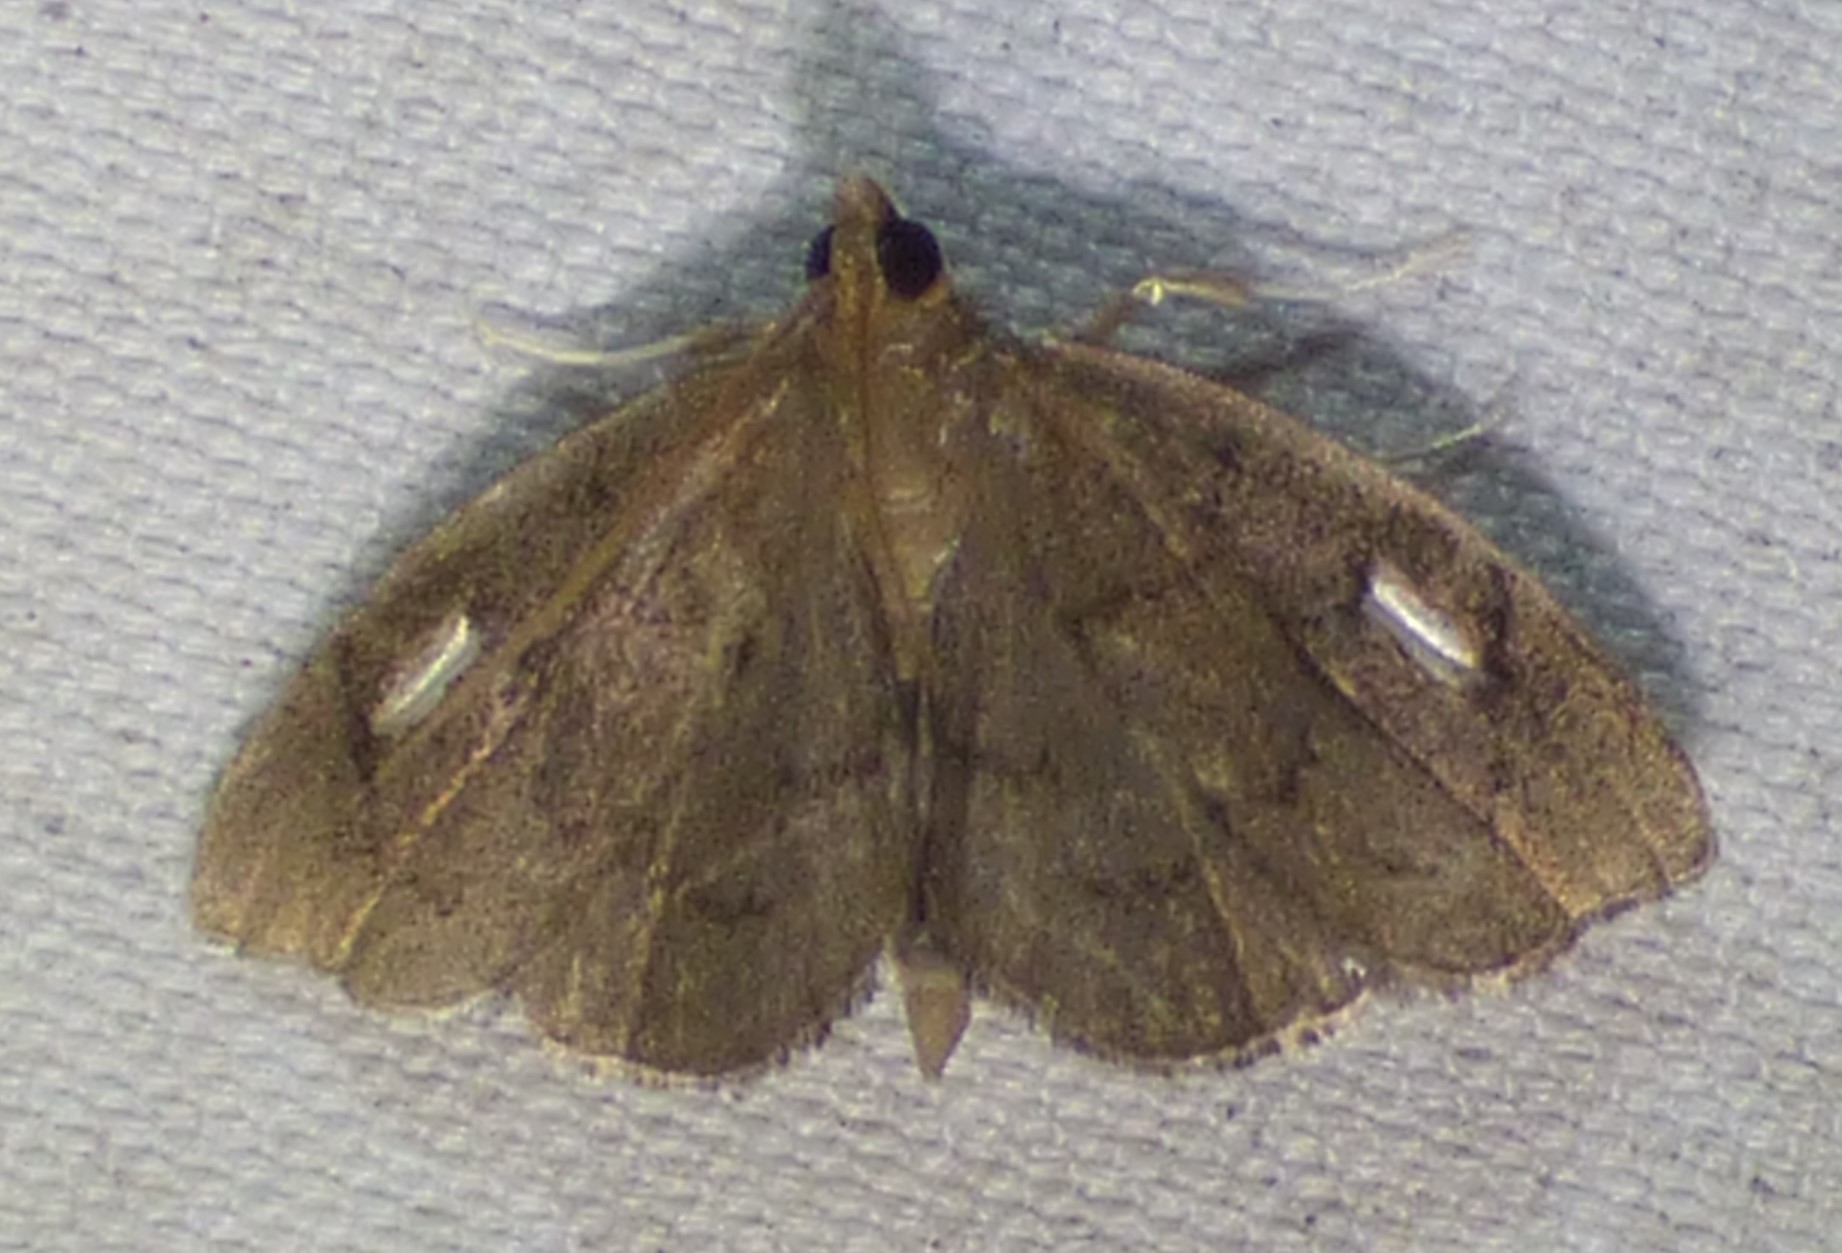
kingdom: Animalia
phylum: Arthropoda
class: Insecta
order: Lepidoptera
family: Crambidae
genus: Perispasta
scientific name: Perispasta caeculalis
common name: Titian peale's moth
